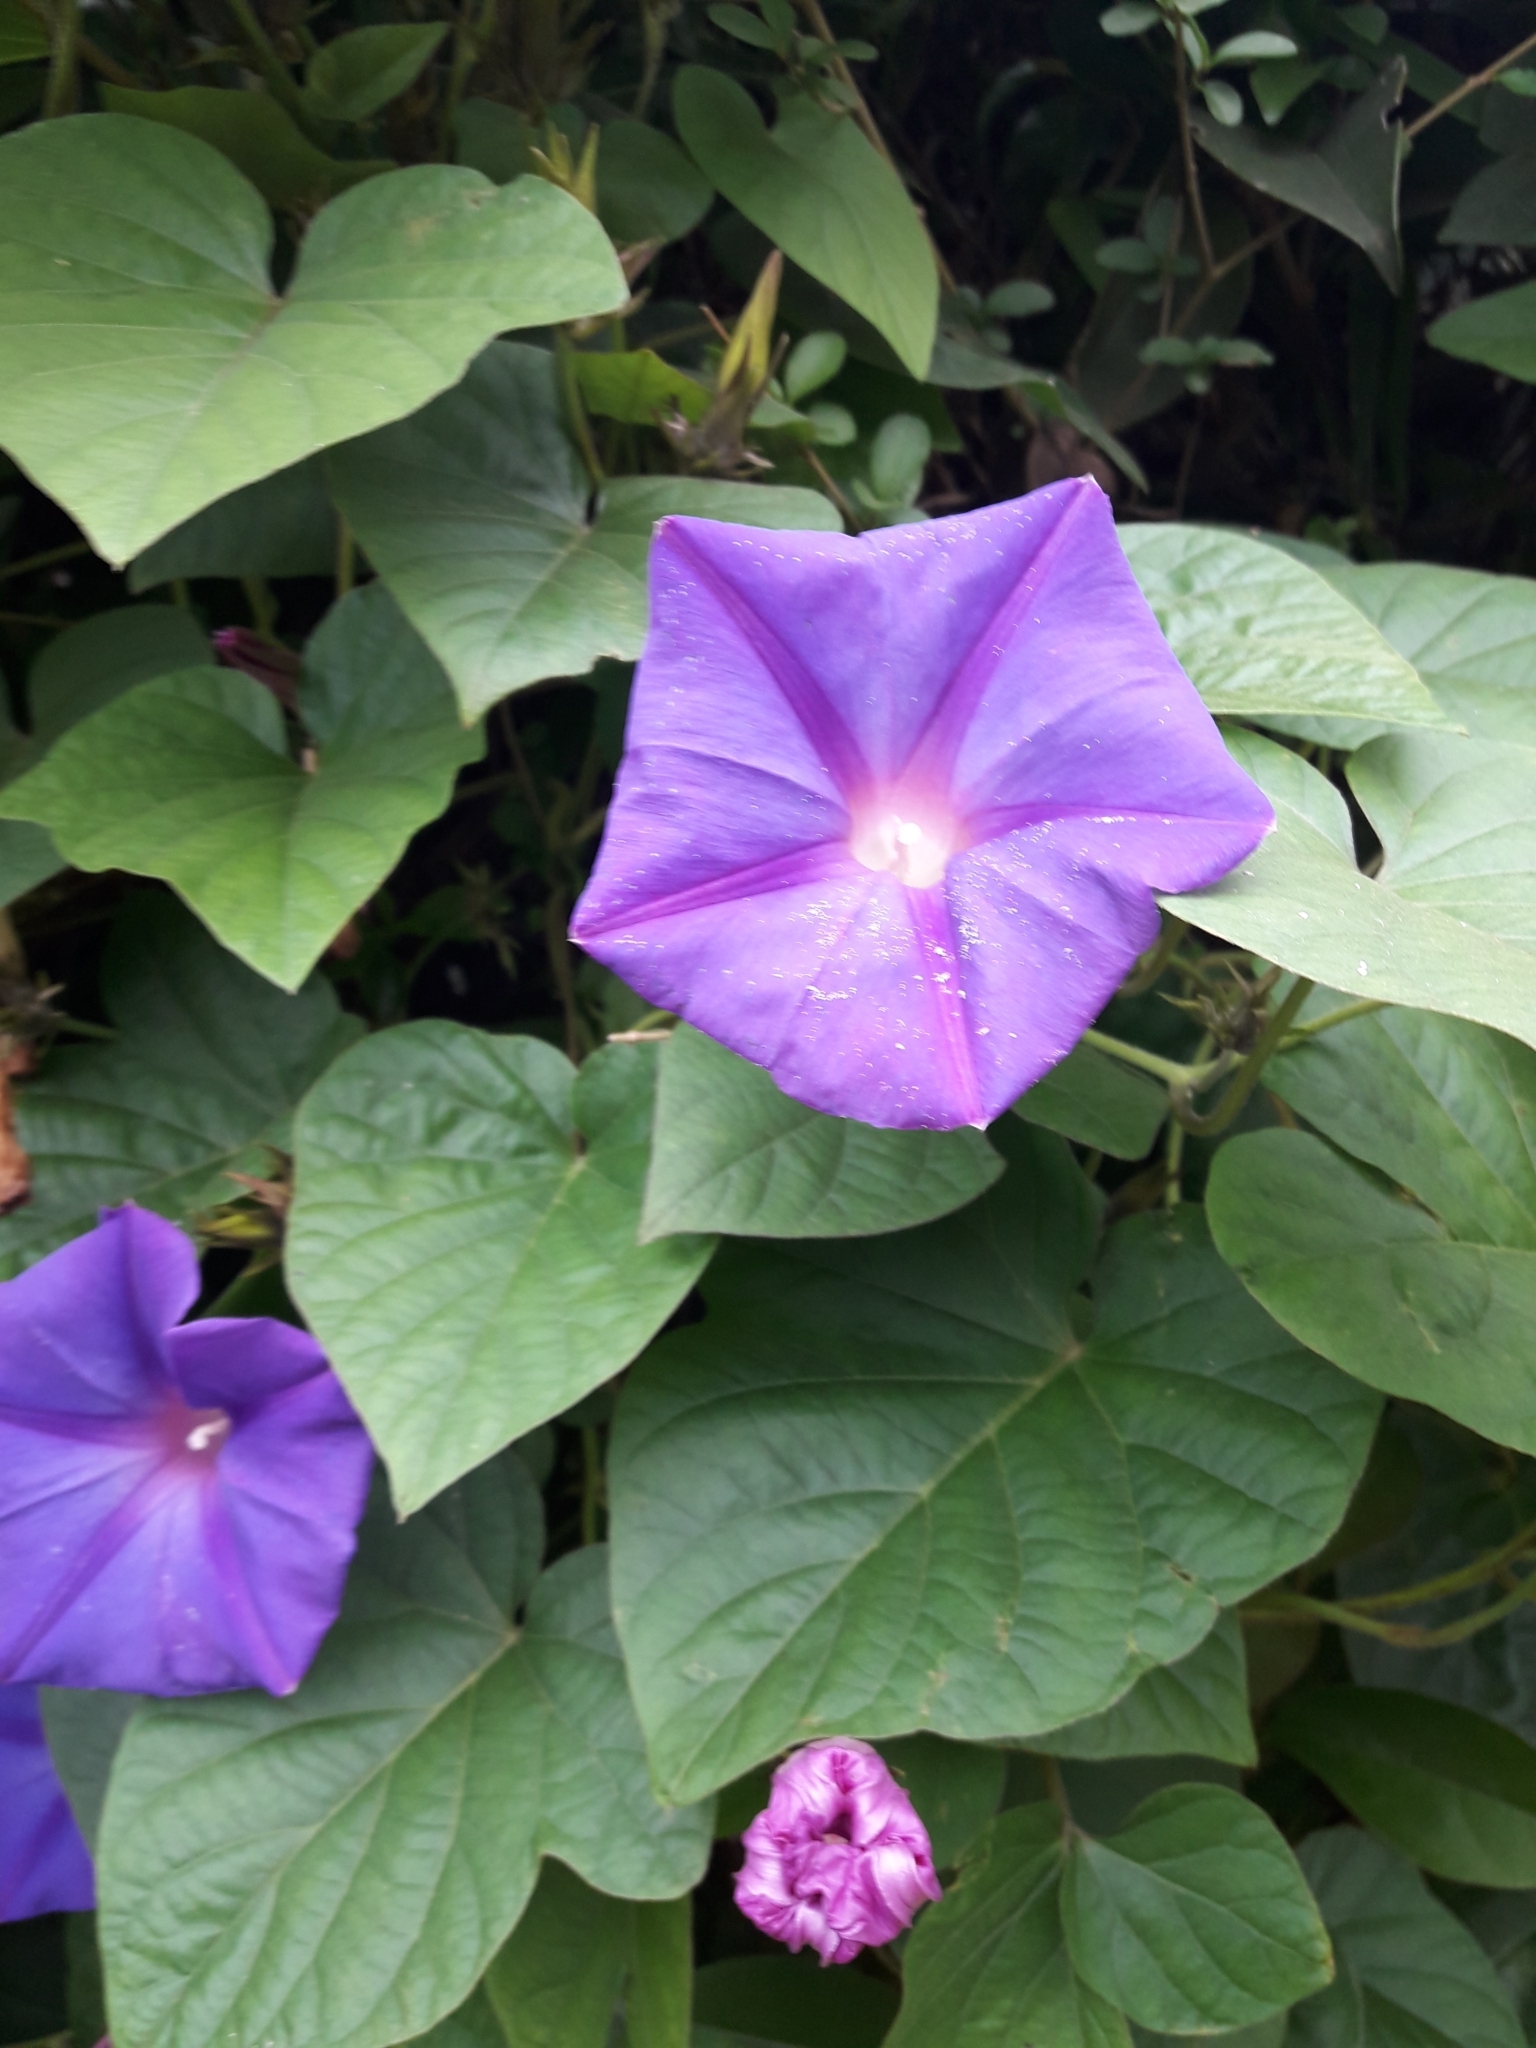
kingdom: Plantae
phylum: Tracheophyta
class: Magnoliopsida
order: Solanales
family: Convolvulaceae
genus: Ipomoea
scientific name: Ipomoea indica
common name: Blue dawnflower
